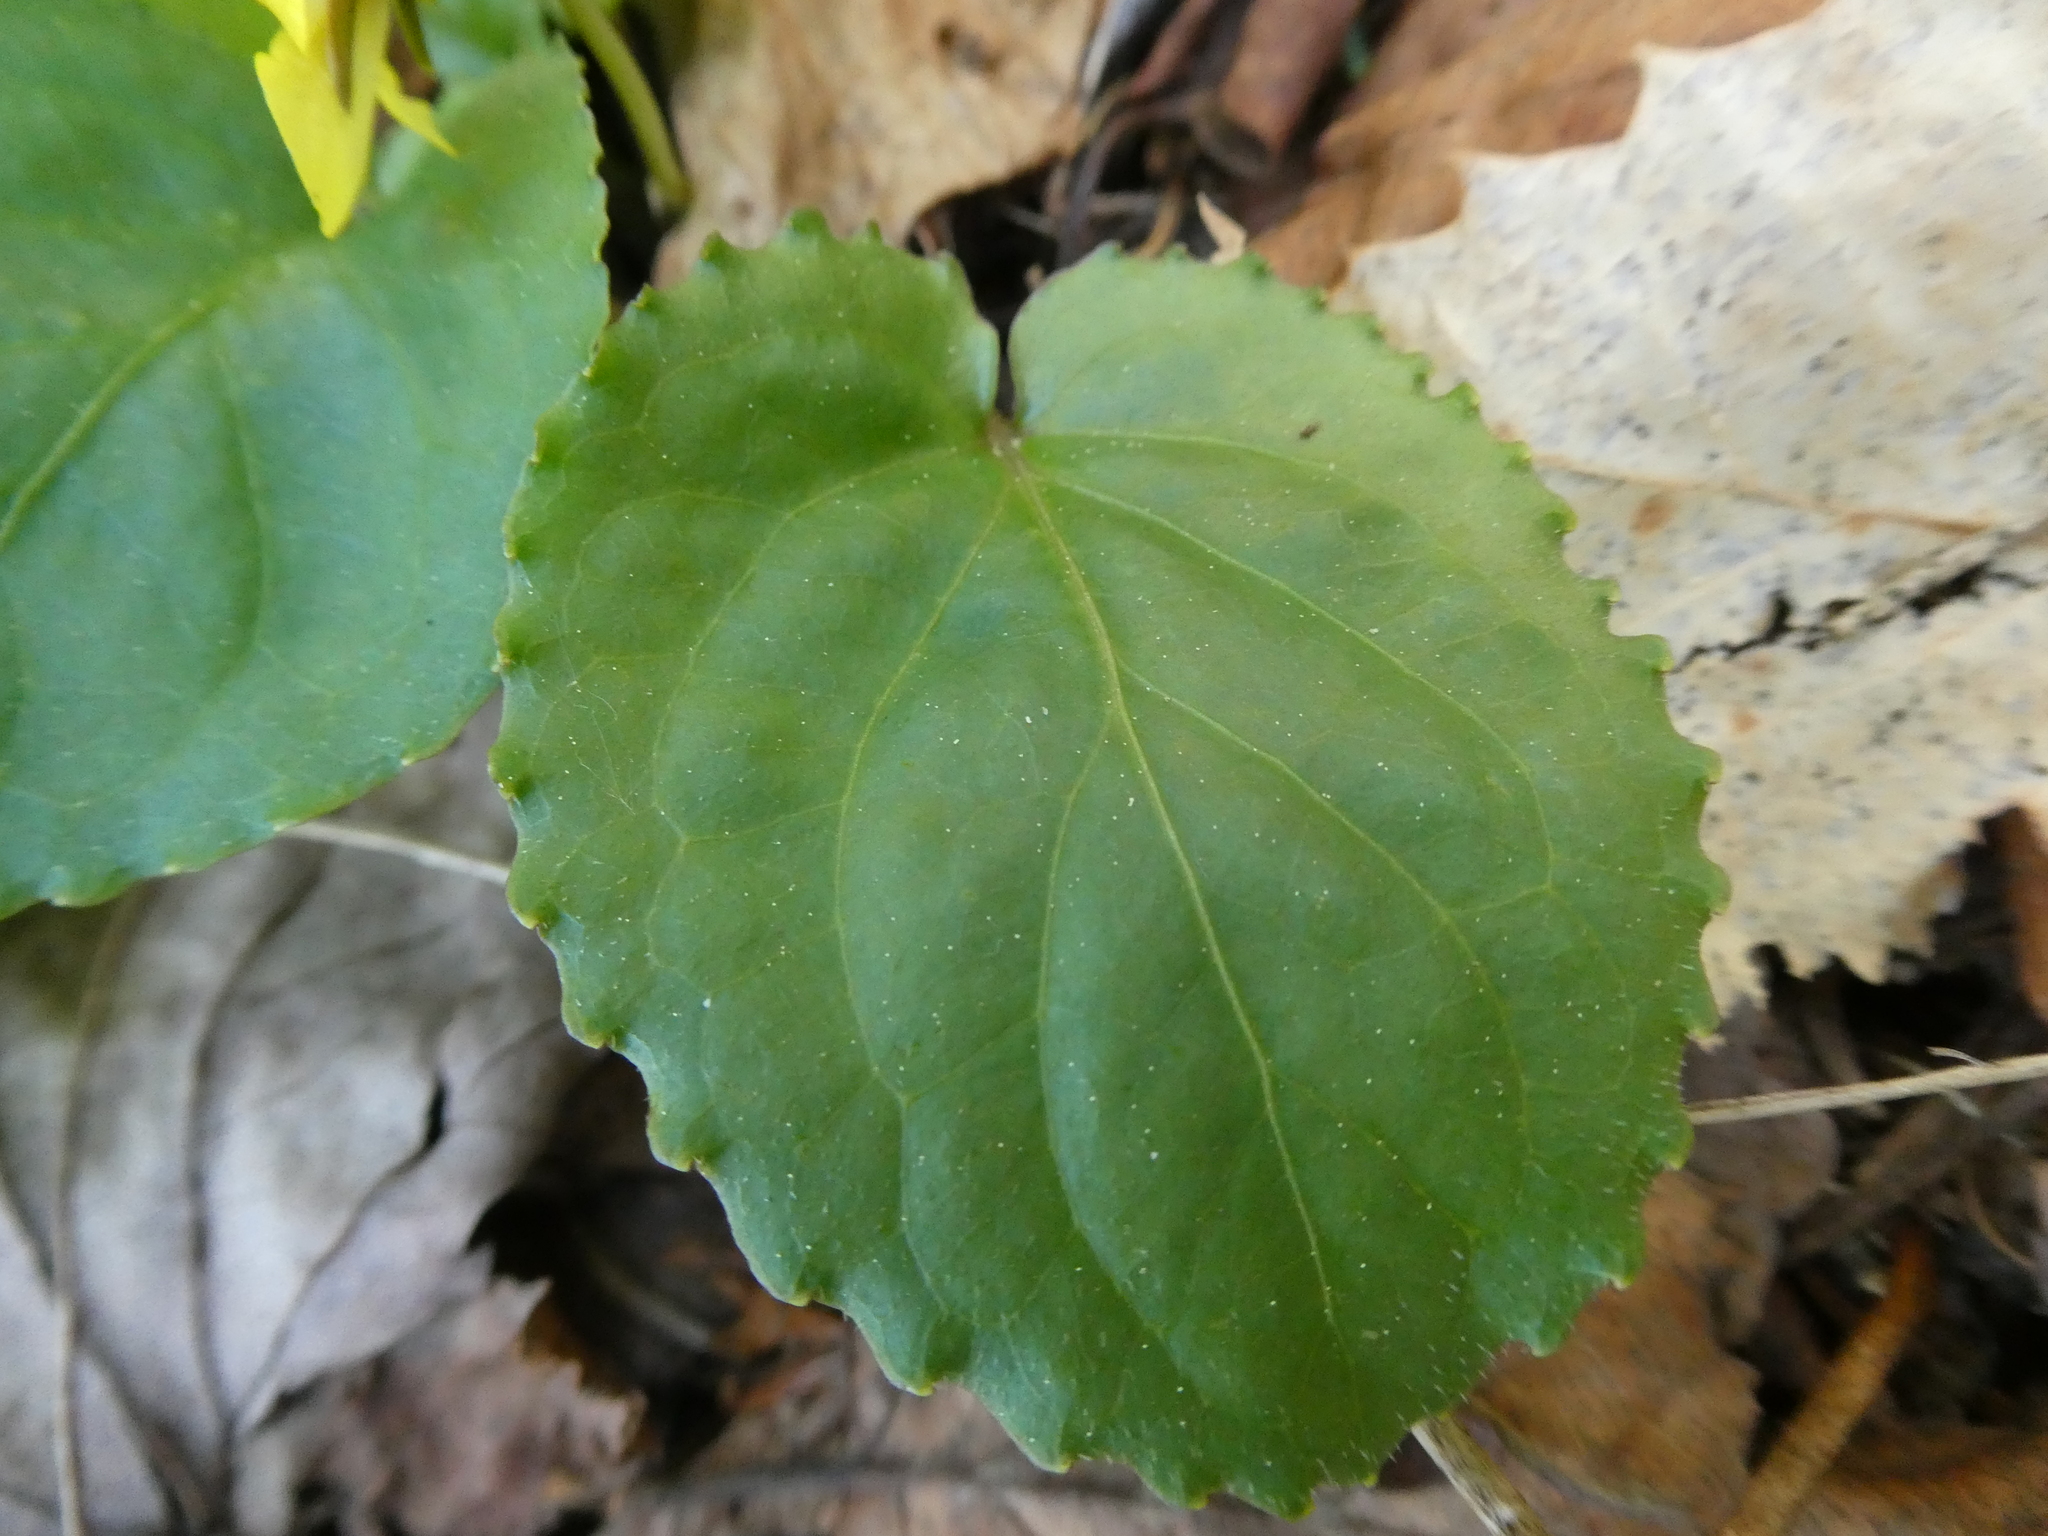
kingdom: Plantae
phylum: Tracheophyta
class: Magnoliopsida
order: Malpighiales
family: Violaceae
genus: Viola
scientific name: Viola rotundifolia
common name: Early yellow violet
